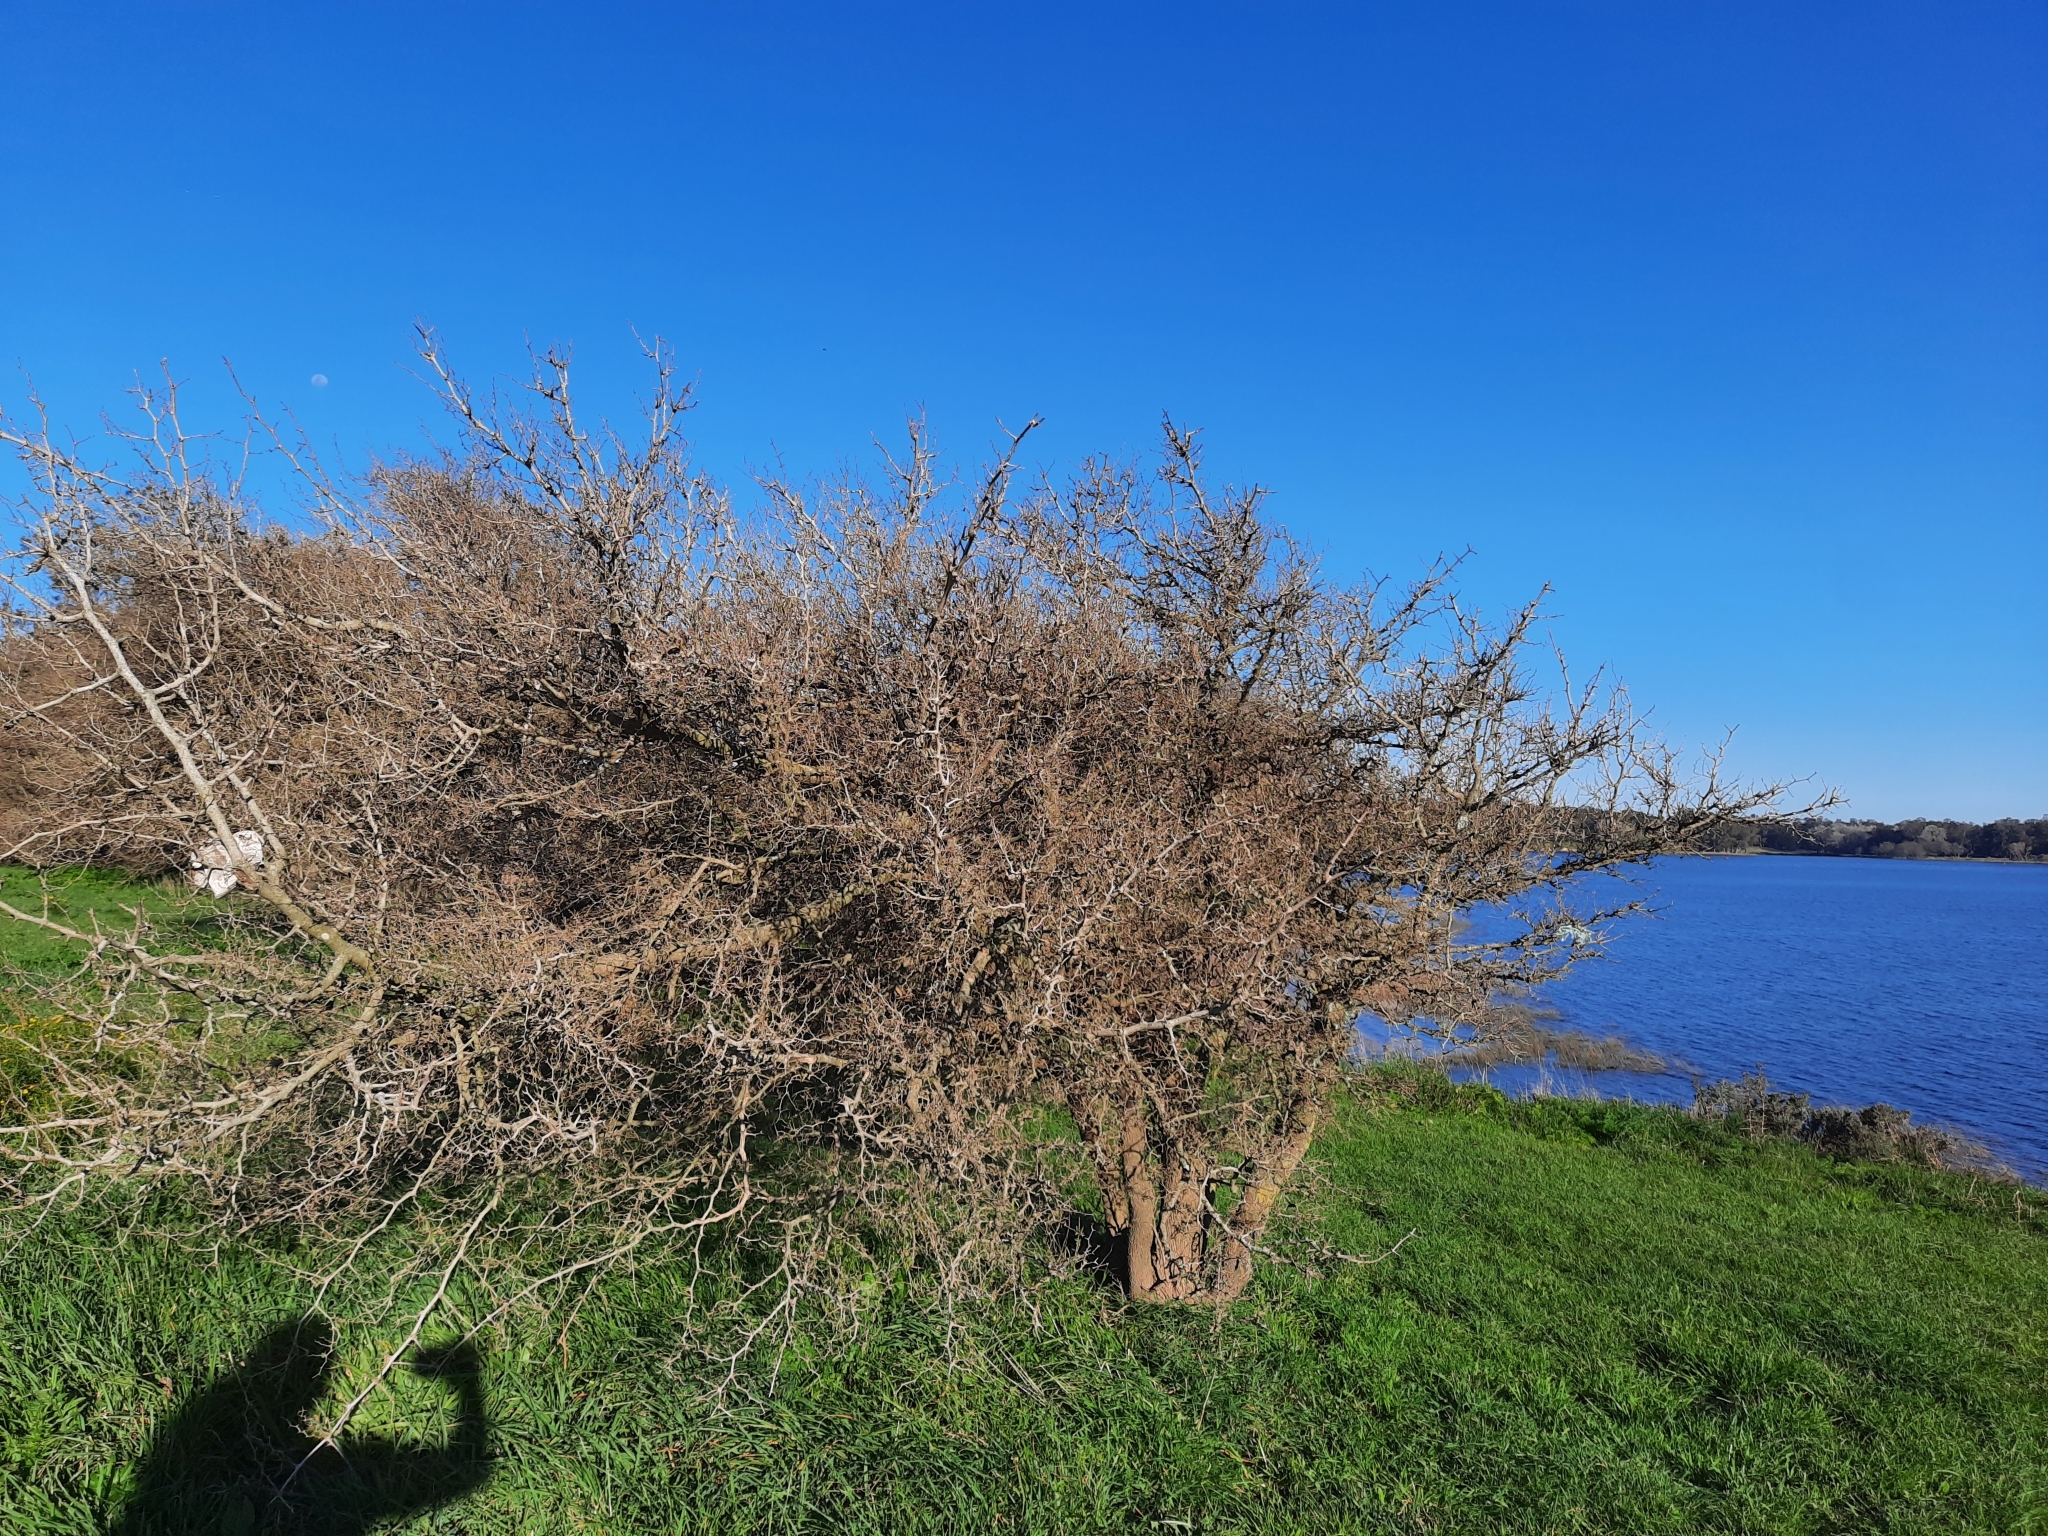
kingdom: Plantae
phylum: Tracheophyta
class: Magnoliopsida
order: Rosales
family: Cannabaceae
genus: Celtis
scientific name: Celtis tala
